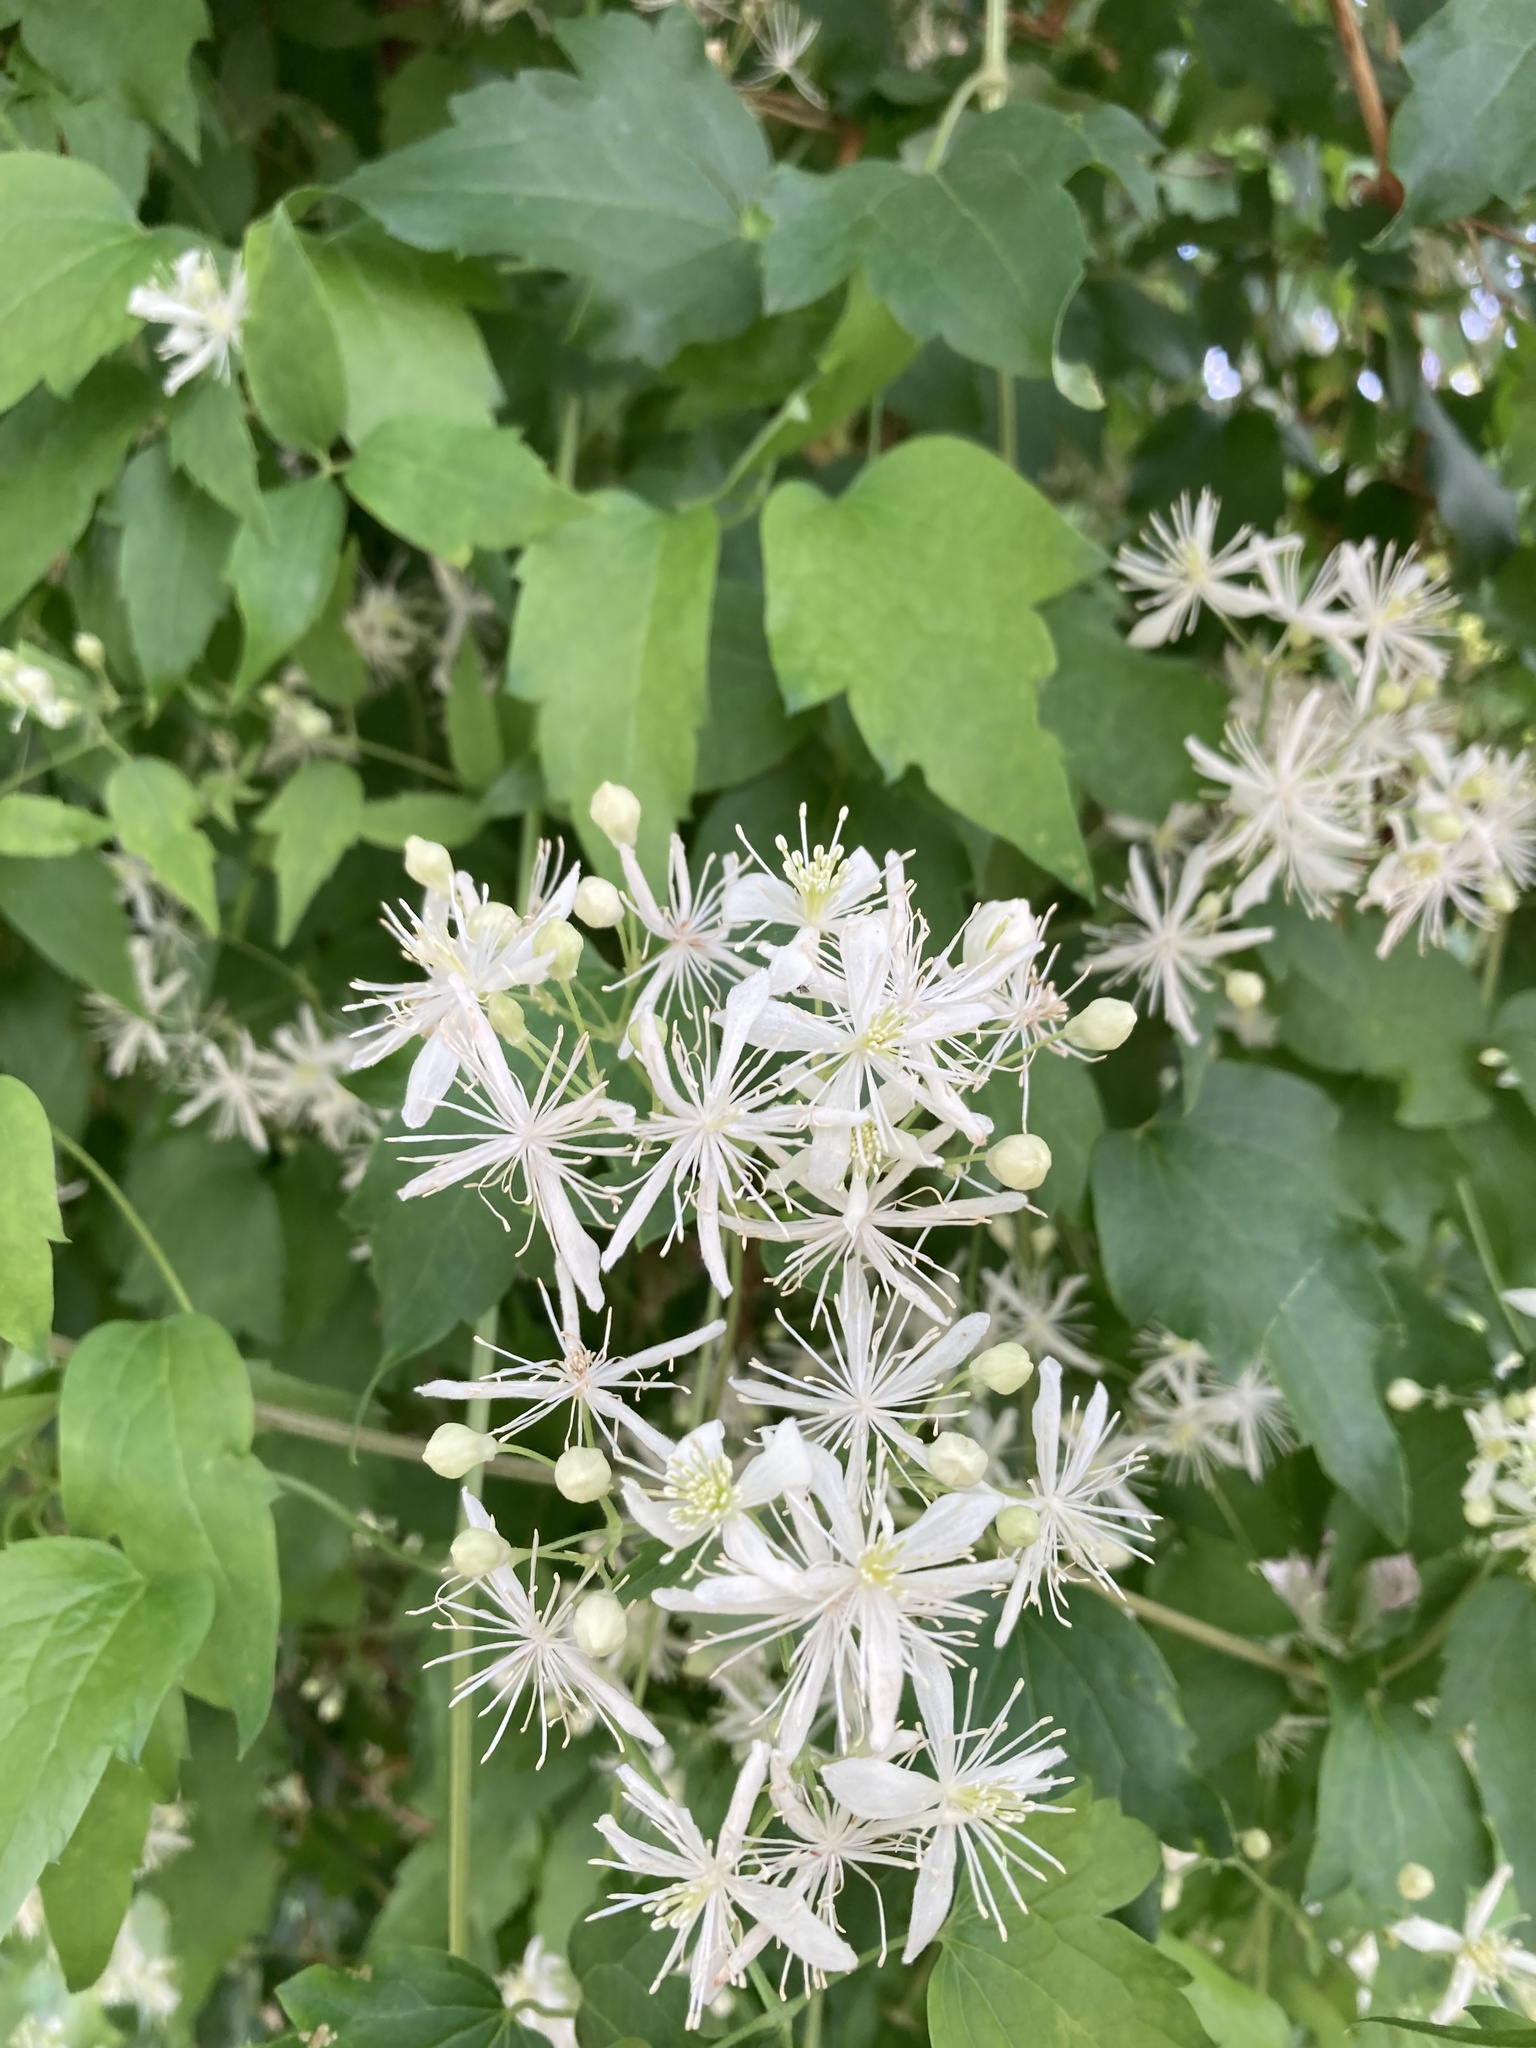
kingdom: Plantae
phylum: Tracheophyta
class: Magnoliopsida
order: Ranunculales
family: Ranunculaceae
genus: Clematis
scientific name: Clematis ligusticifolia
